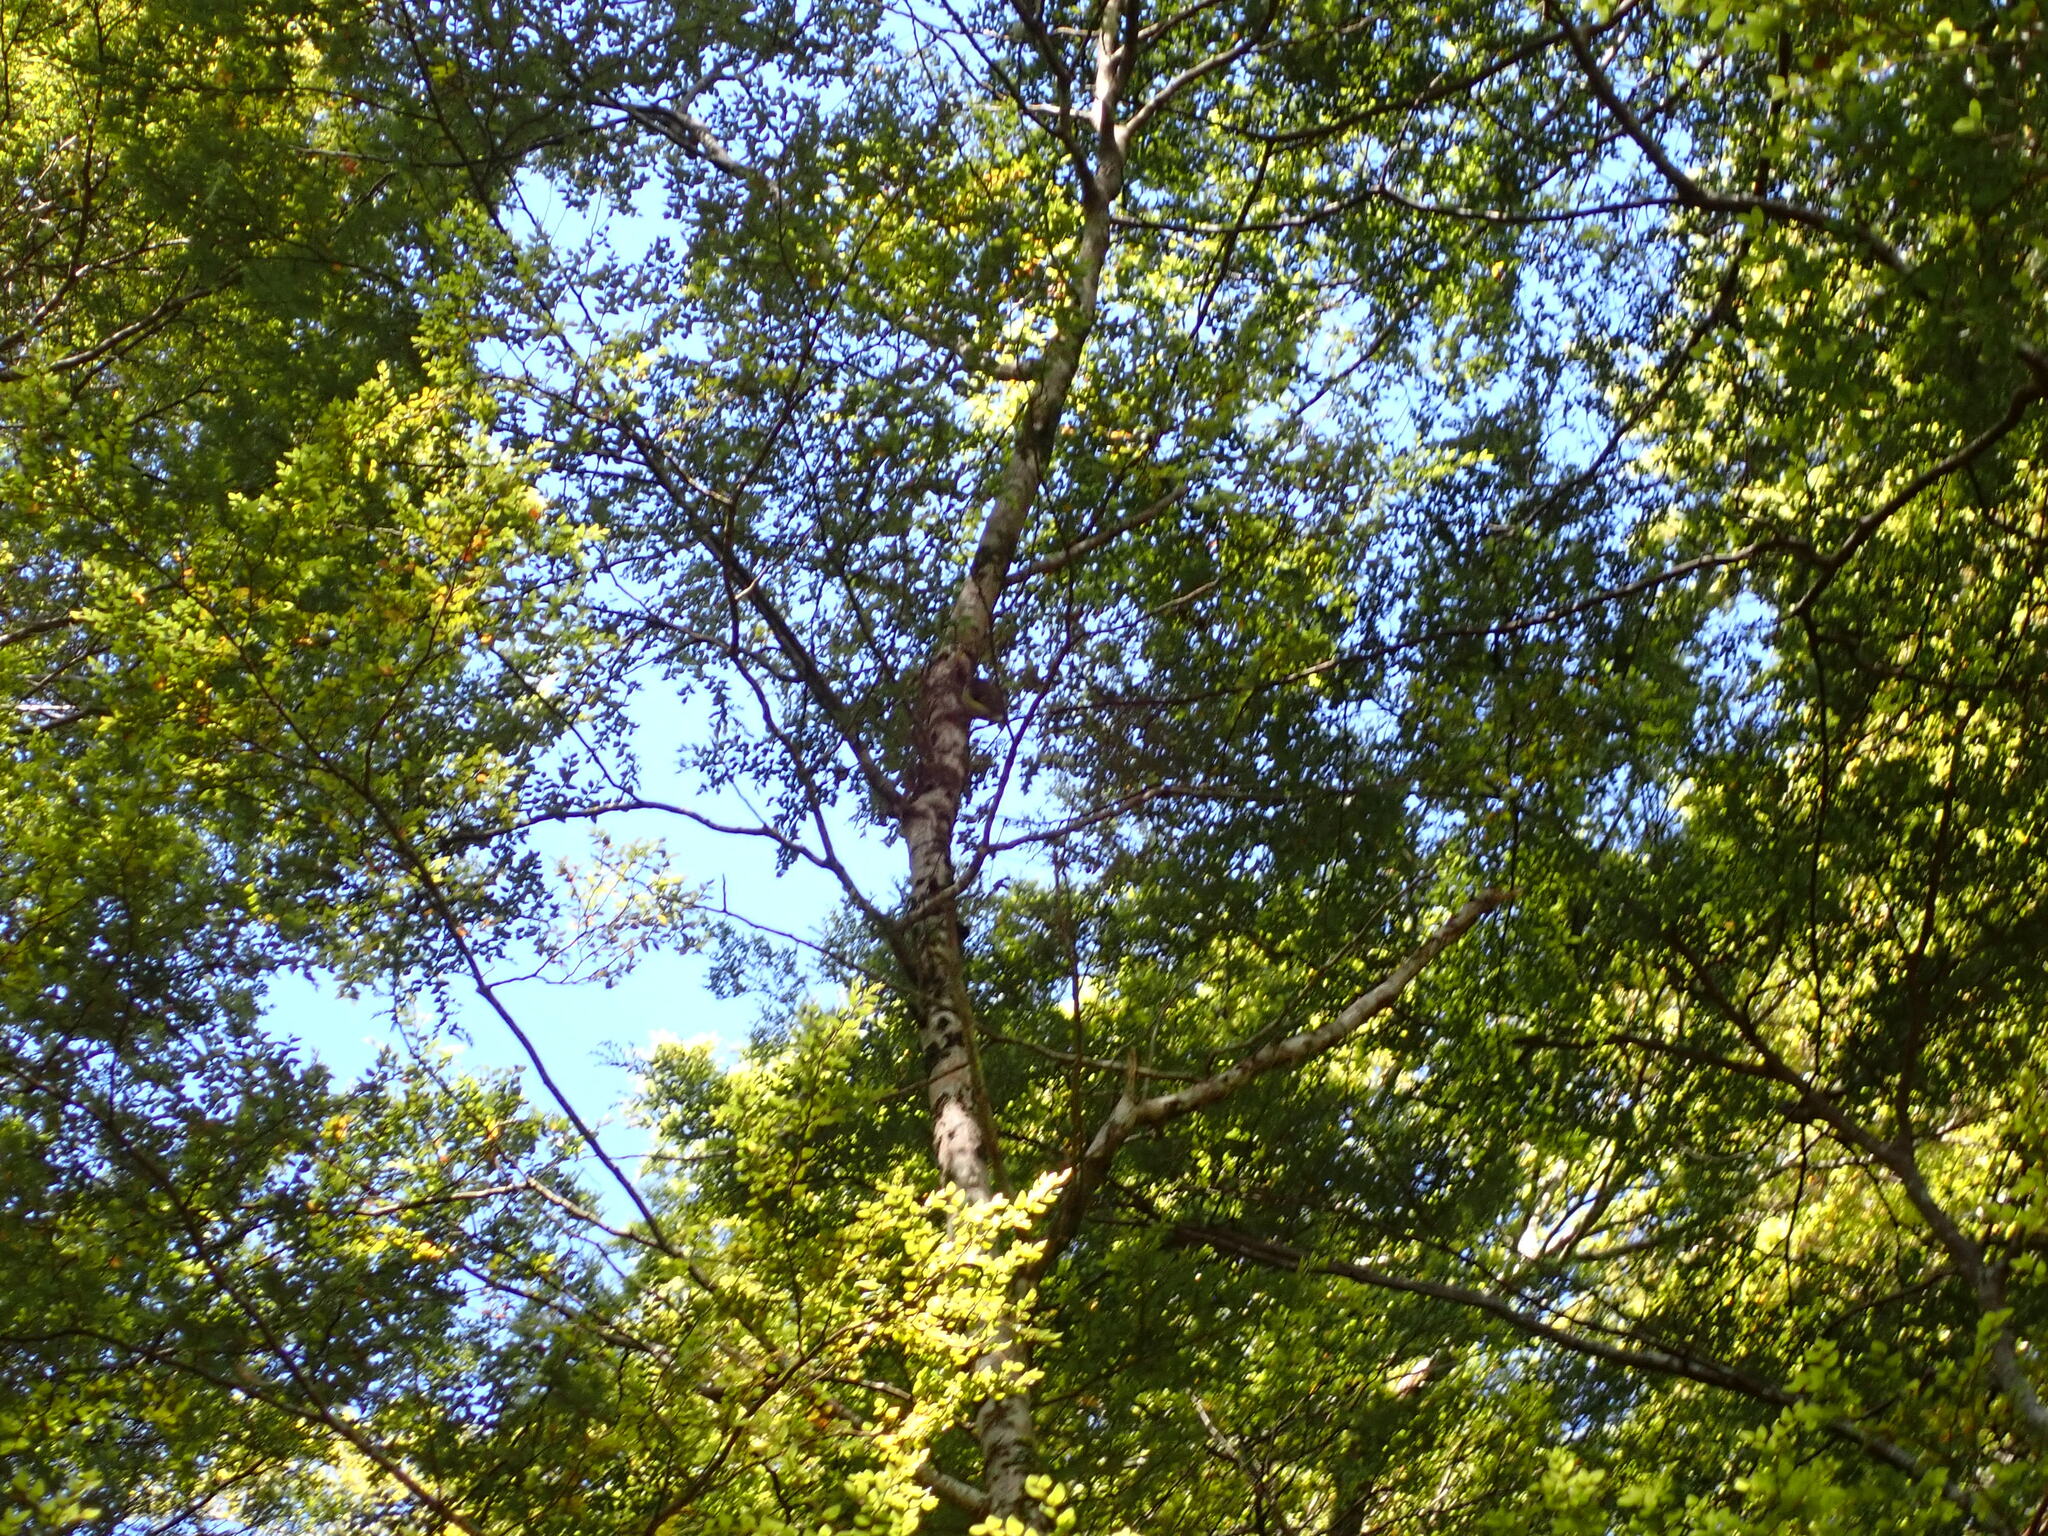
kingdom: Animalia
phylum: Chordata
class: Aves
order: Passeriformes
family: Acanthisittidae
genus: Acanthisitta
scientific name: Acanthisitta chloris
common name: Rifleman
